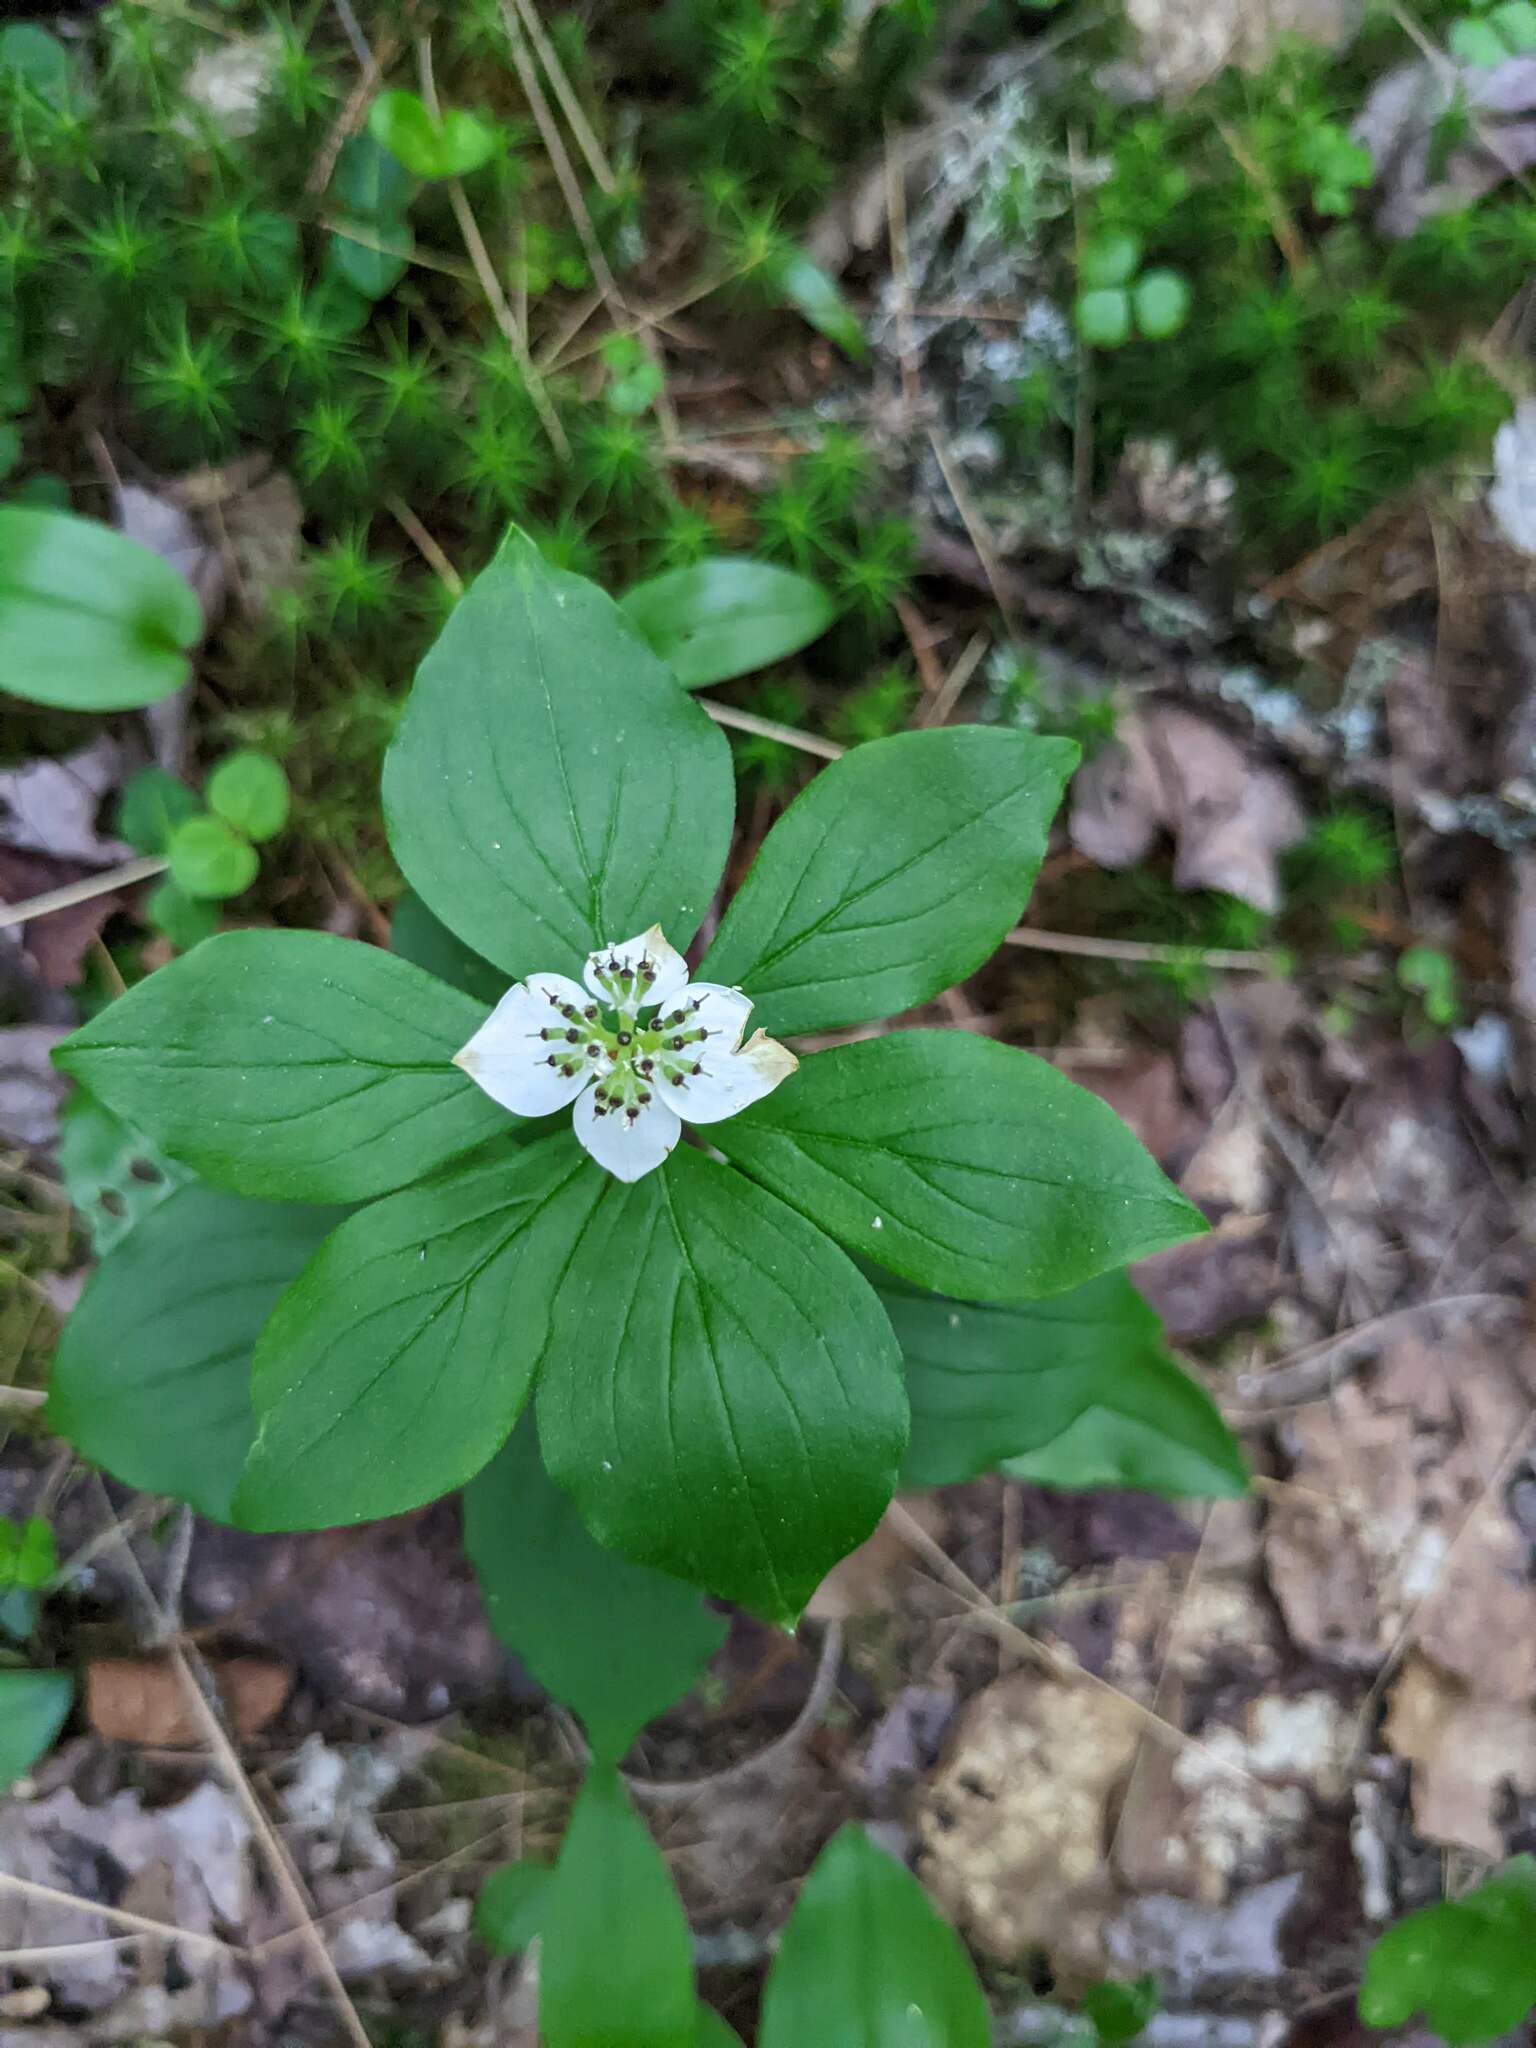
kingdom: Plantae
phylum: Tracheophyta
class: Magnoliopsida
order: Cornales
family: Cornaceae
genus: Cornus
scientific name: Cornus canadensis
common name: Creeping dogwood
